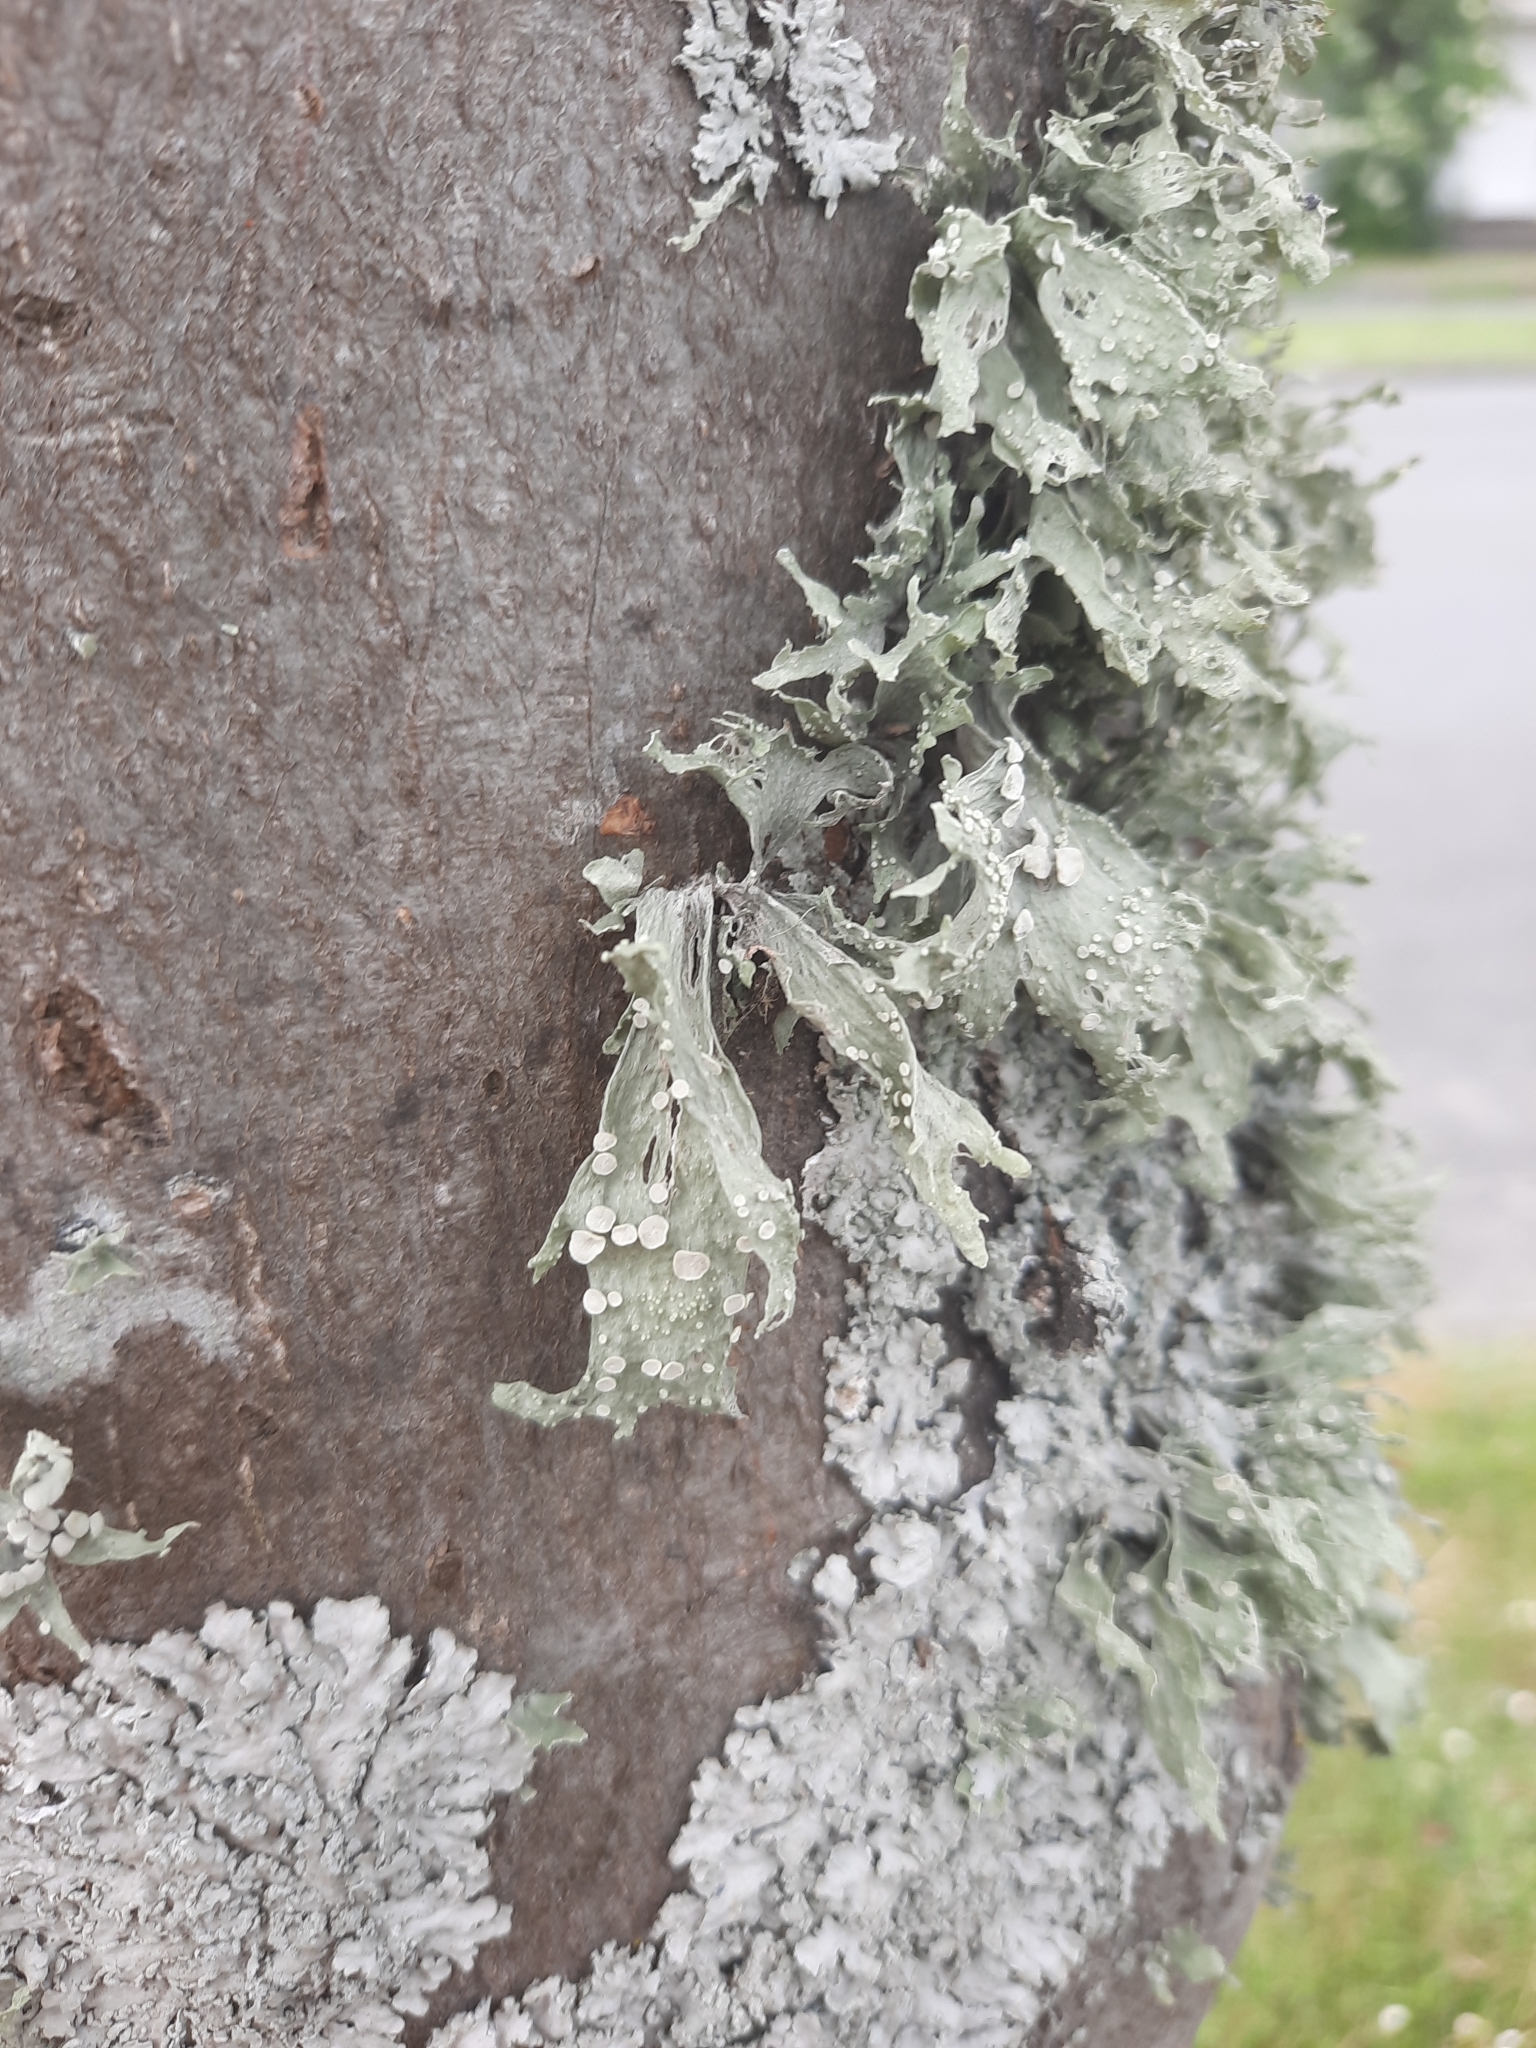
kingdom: Fungi
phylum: Ascomycota
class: Lecanoromycetes
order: Lecanorales
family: Ramalinaceae
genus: Ramalina
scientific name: Ramalina celastri
